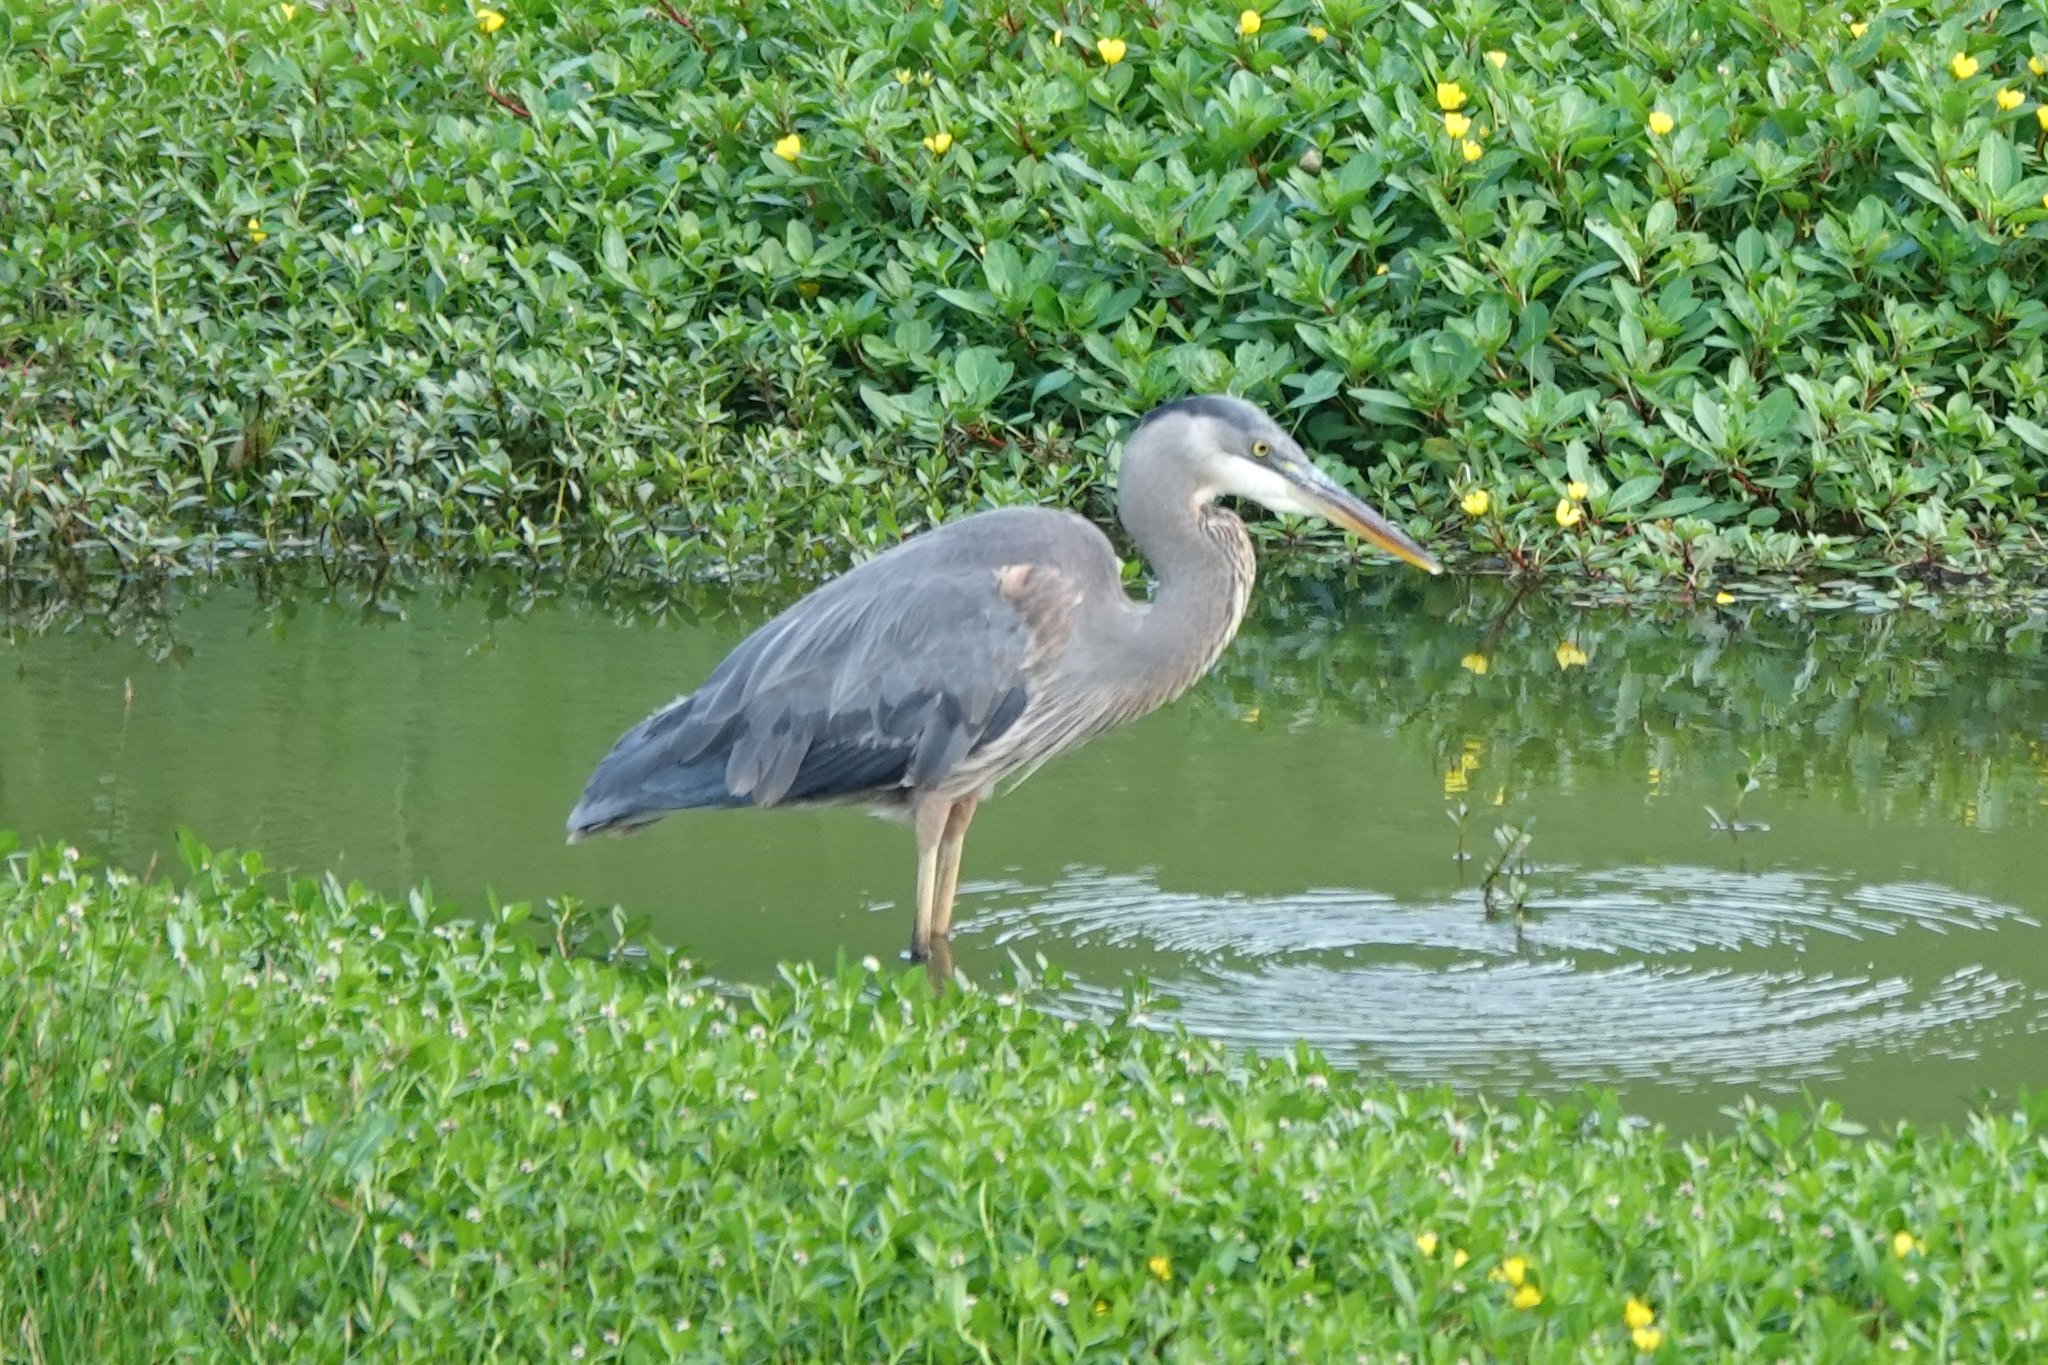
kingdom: Animalia
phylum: Chordata
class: Aves
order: Pelecaniformes
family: Ardeidae
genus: Ardea
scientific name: Ardea herodias
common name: Great blue heron
